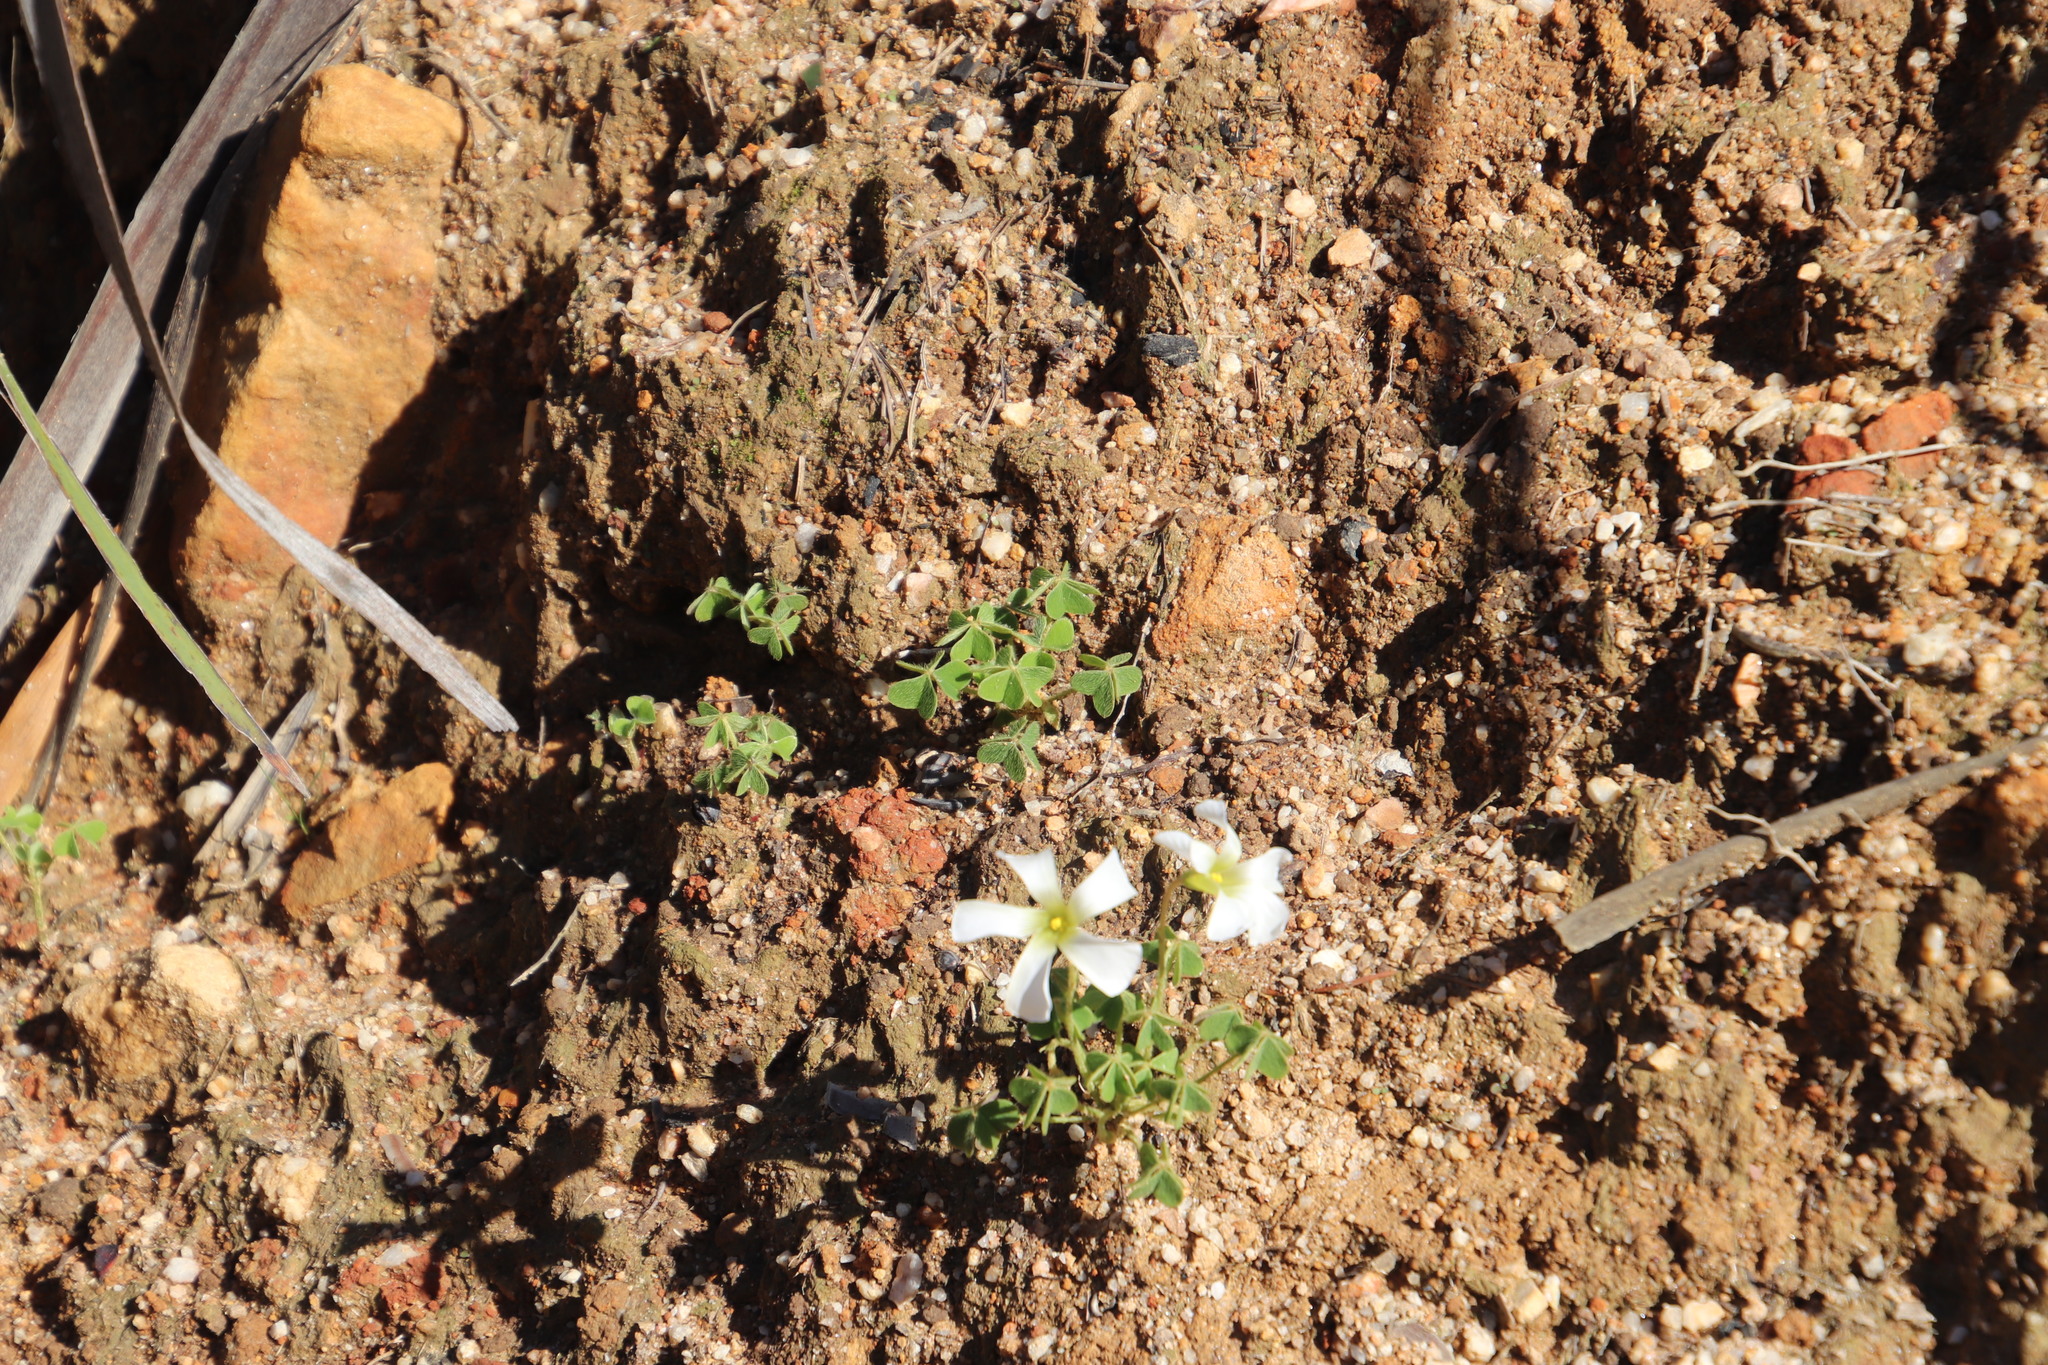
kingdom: Plantae
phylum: Tracheophyta
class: Magnoliopsida
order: Oxalidales
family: Oxalidaceae
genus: Oxalis
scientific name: Oxalis lanata
